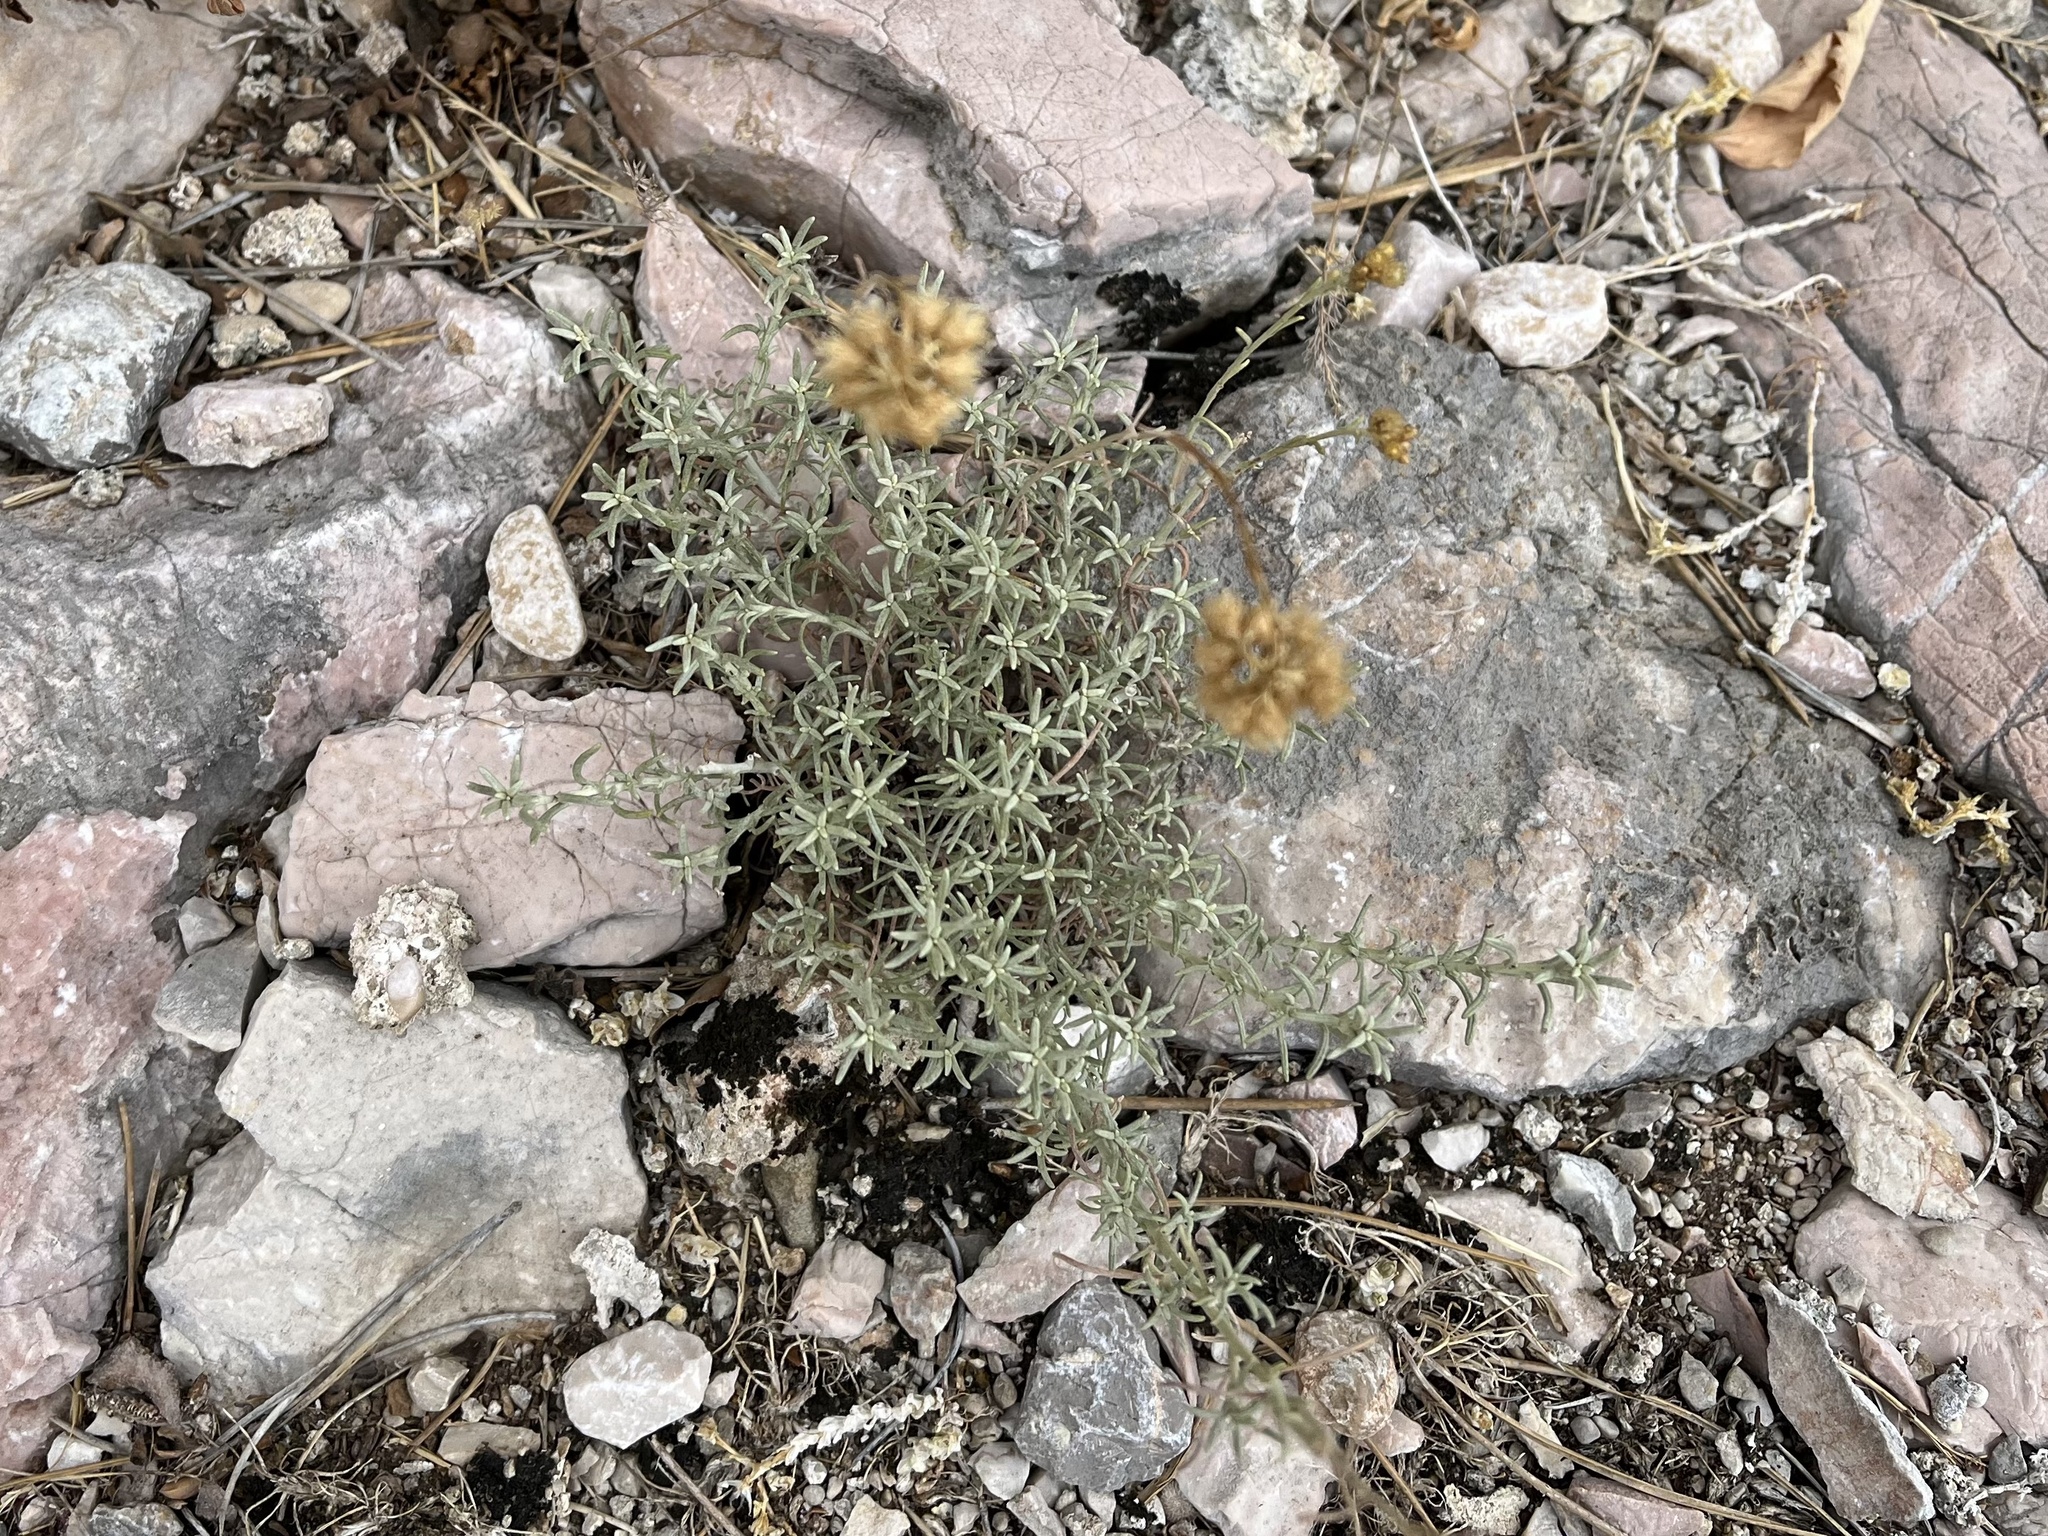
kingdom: Plantae
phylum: Tracheophyta
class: Magnoliopsida
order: Asterales
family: Asteraceae
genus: Helichrysum
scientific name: Helichrysum italicum
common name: Curryplant
